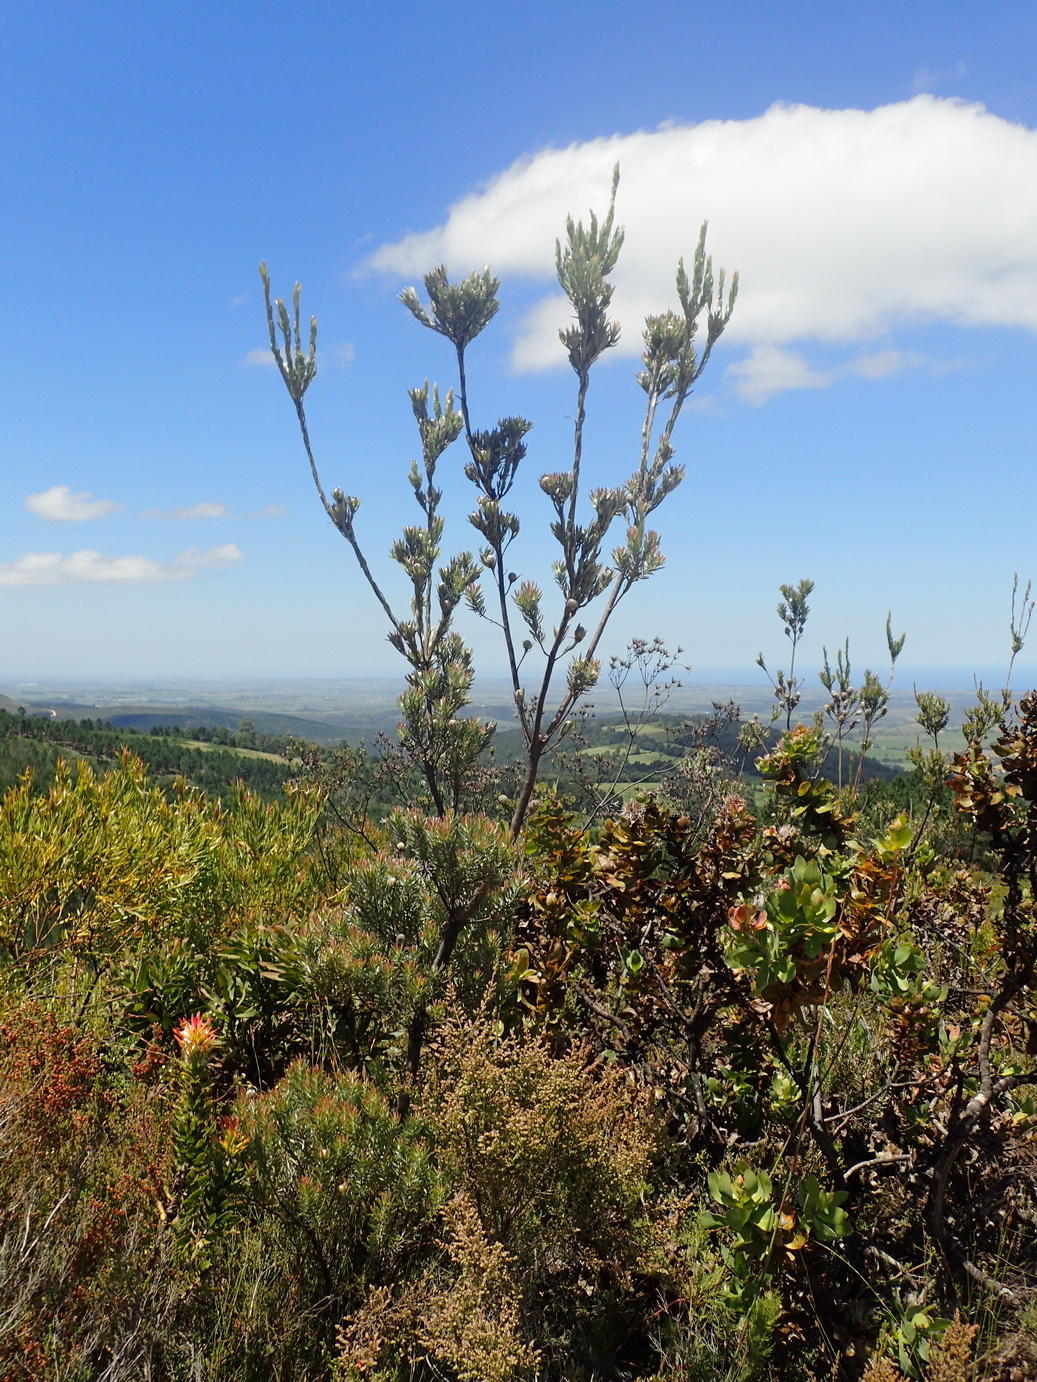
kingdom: Plantae
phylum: Tracheophyta
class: Magnoliopsida
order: Proteales
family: Proteaceae
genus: Leucadendron
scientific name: Leucadendron uliginosum
